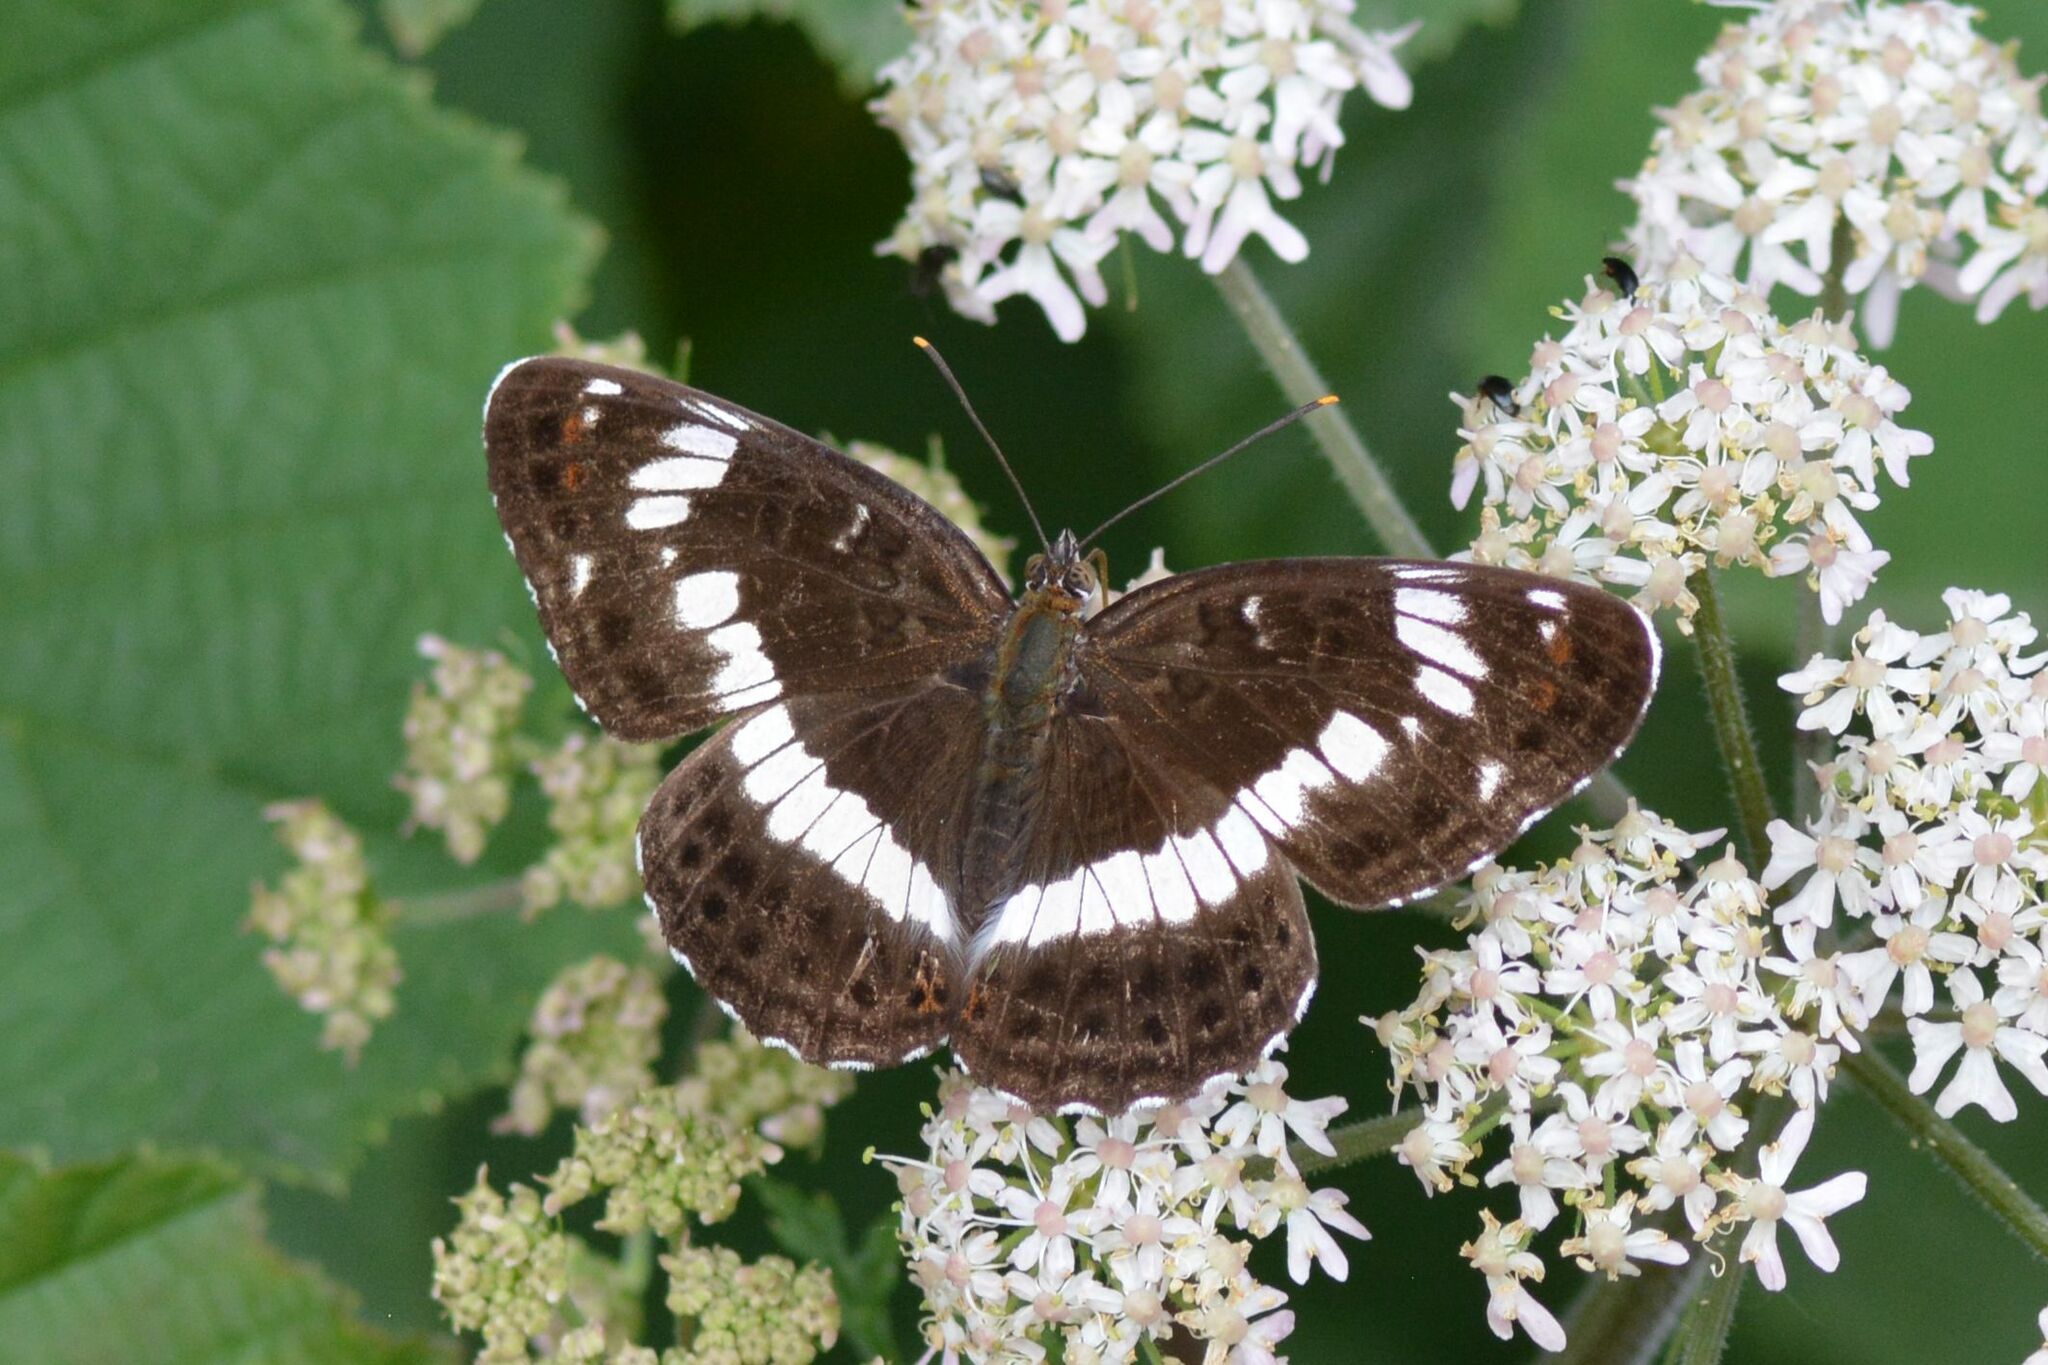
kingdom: Animalia
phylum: Arthropoda
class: Insecta
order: Lepidoptera
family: Nymphalidae
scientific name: Nymphalidae
